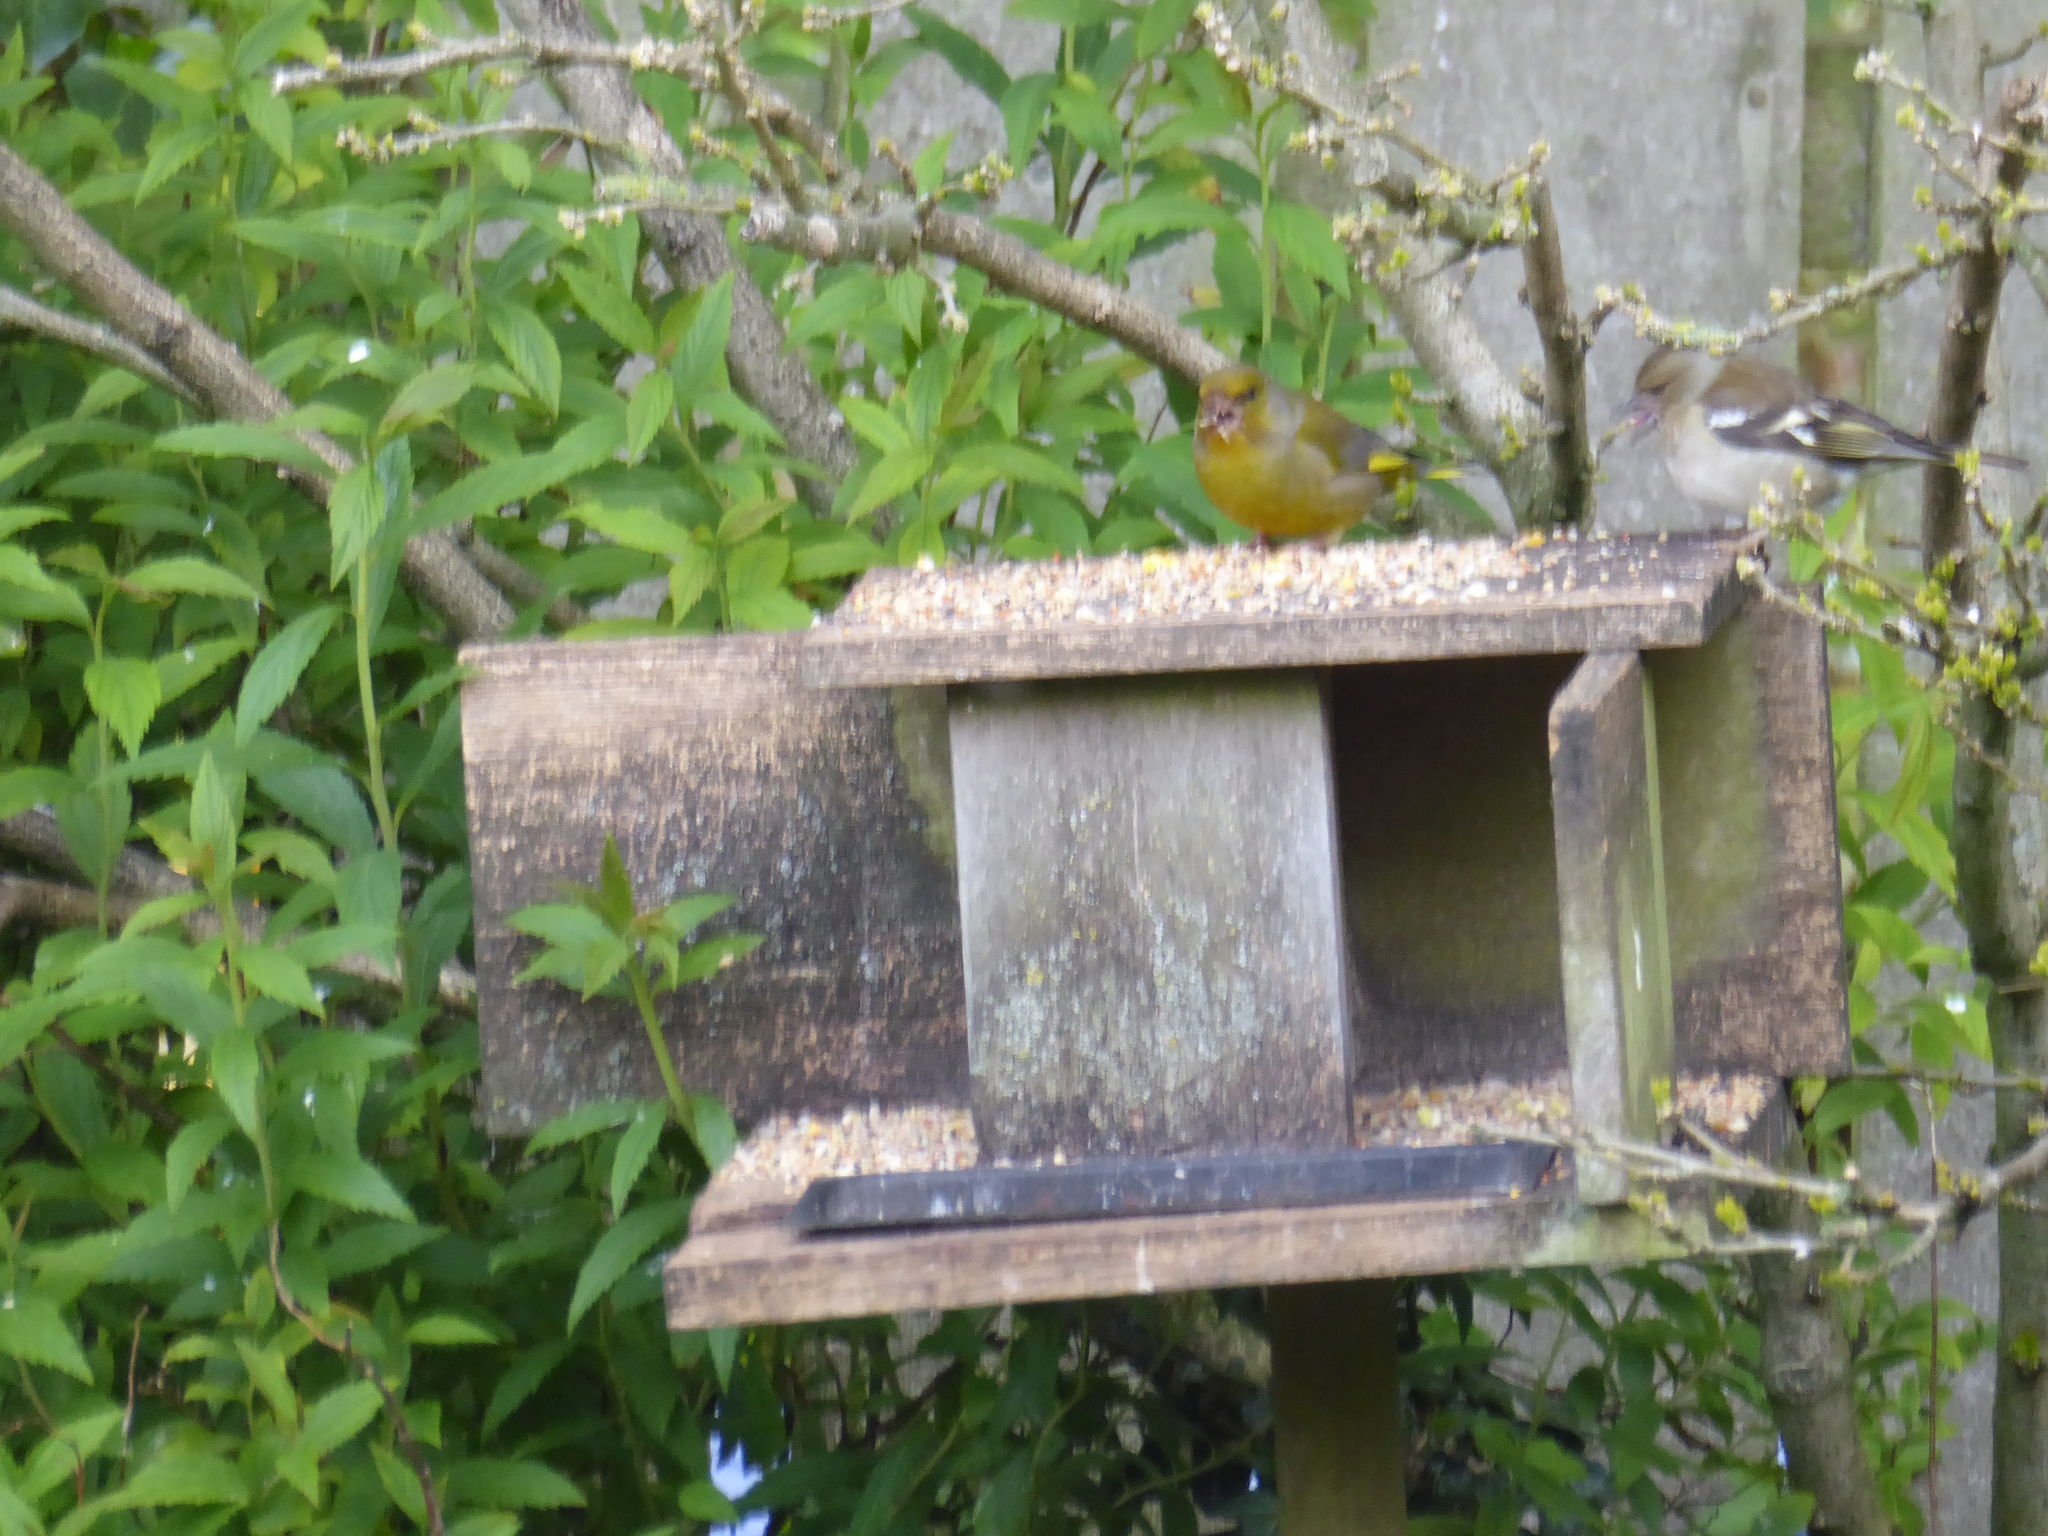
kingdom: Plantae
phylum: Tracheophyta
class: Liliopsida
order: Poales
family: Poaceae
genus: Chloris
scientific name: Chloris chloris
